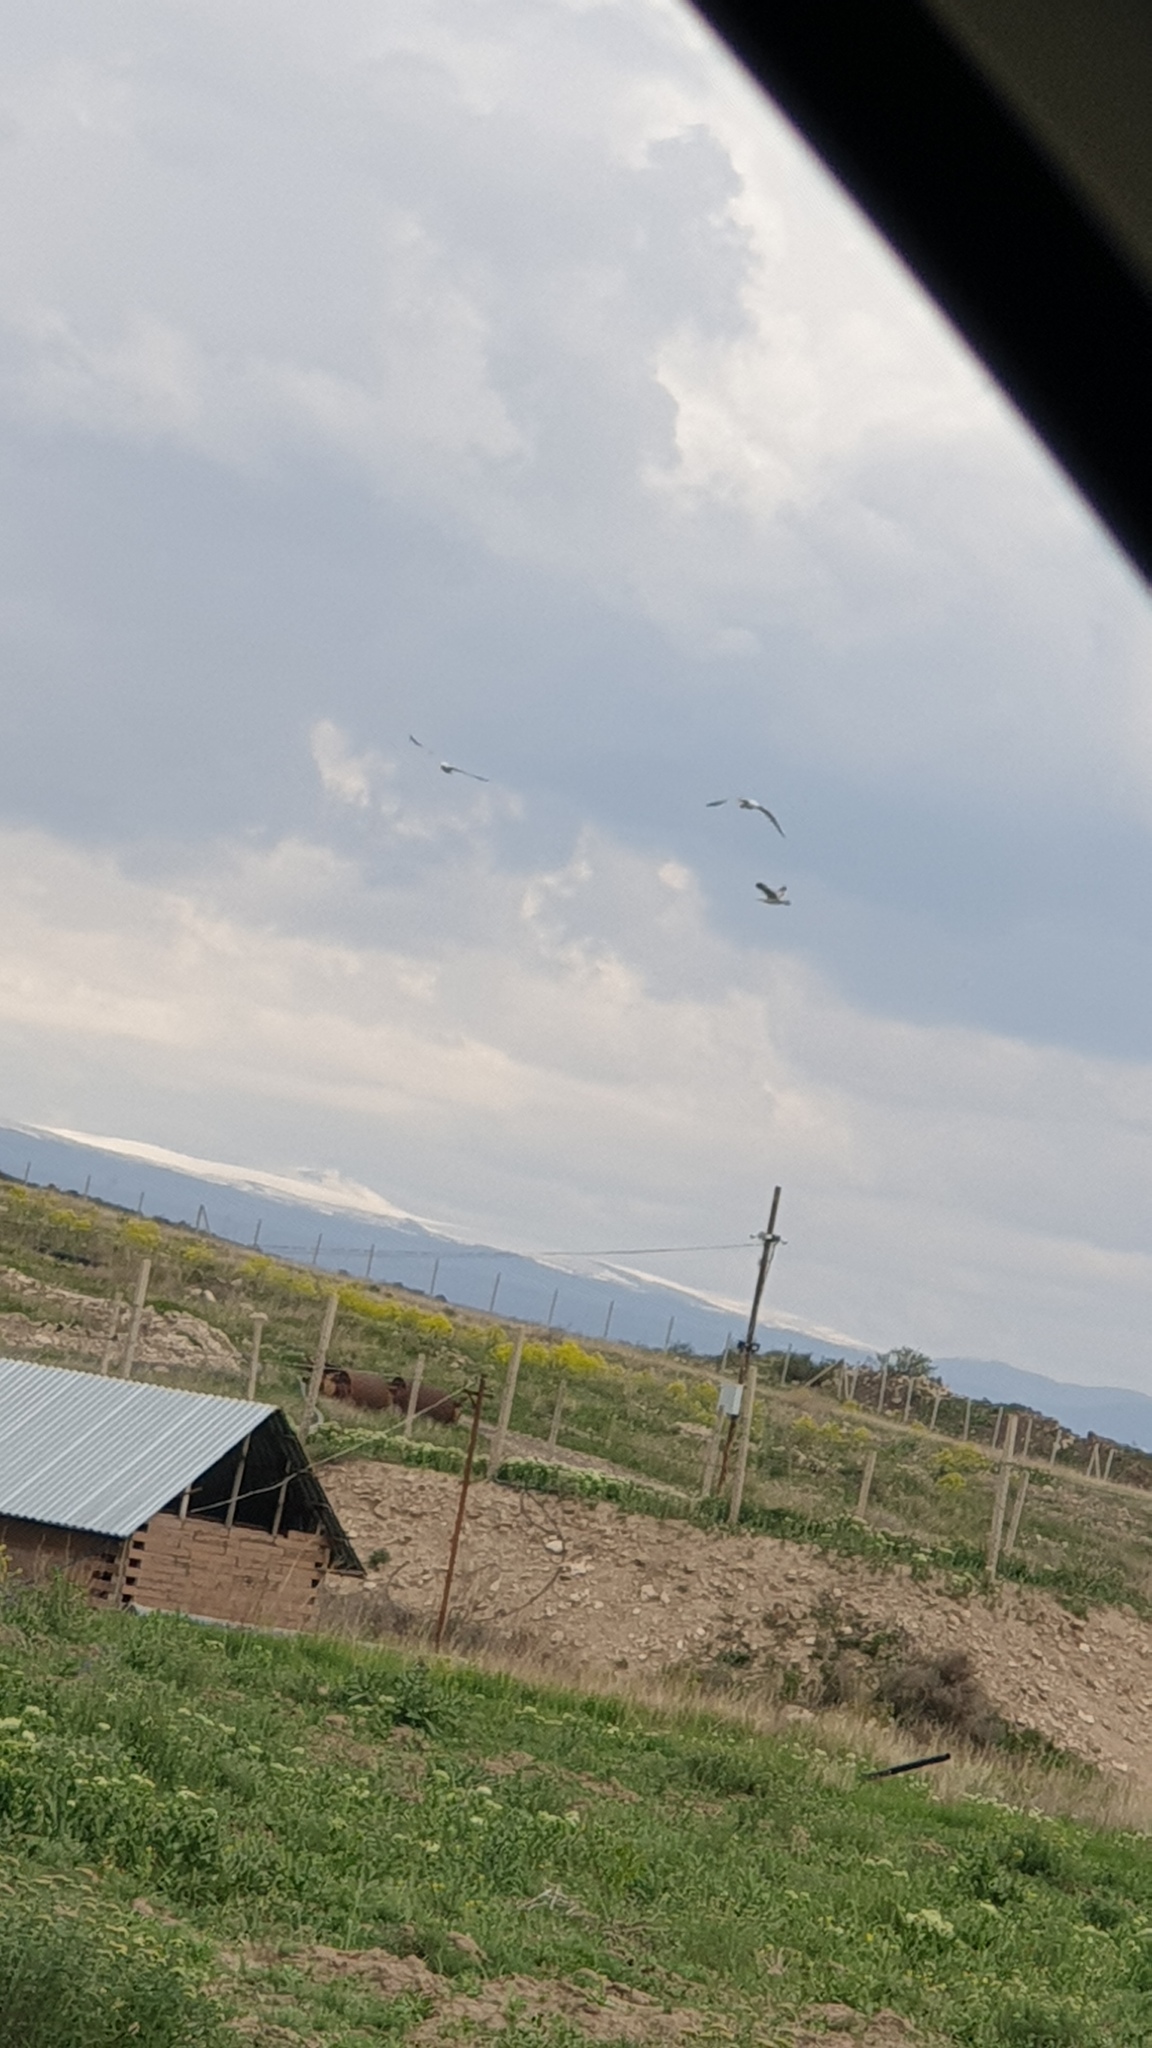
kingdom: Animalia
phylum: Chordata
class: Aves
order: Charadriiformes
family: Laridae
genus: Larus
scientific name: Larus armenicus
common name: Armenian gull
